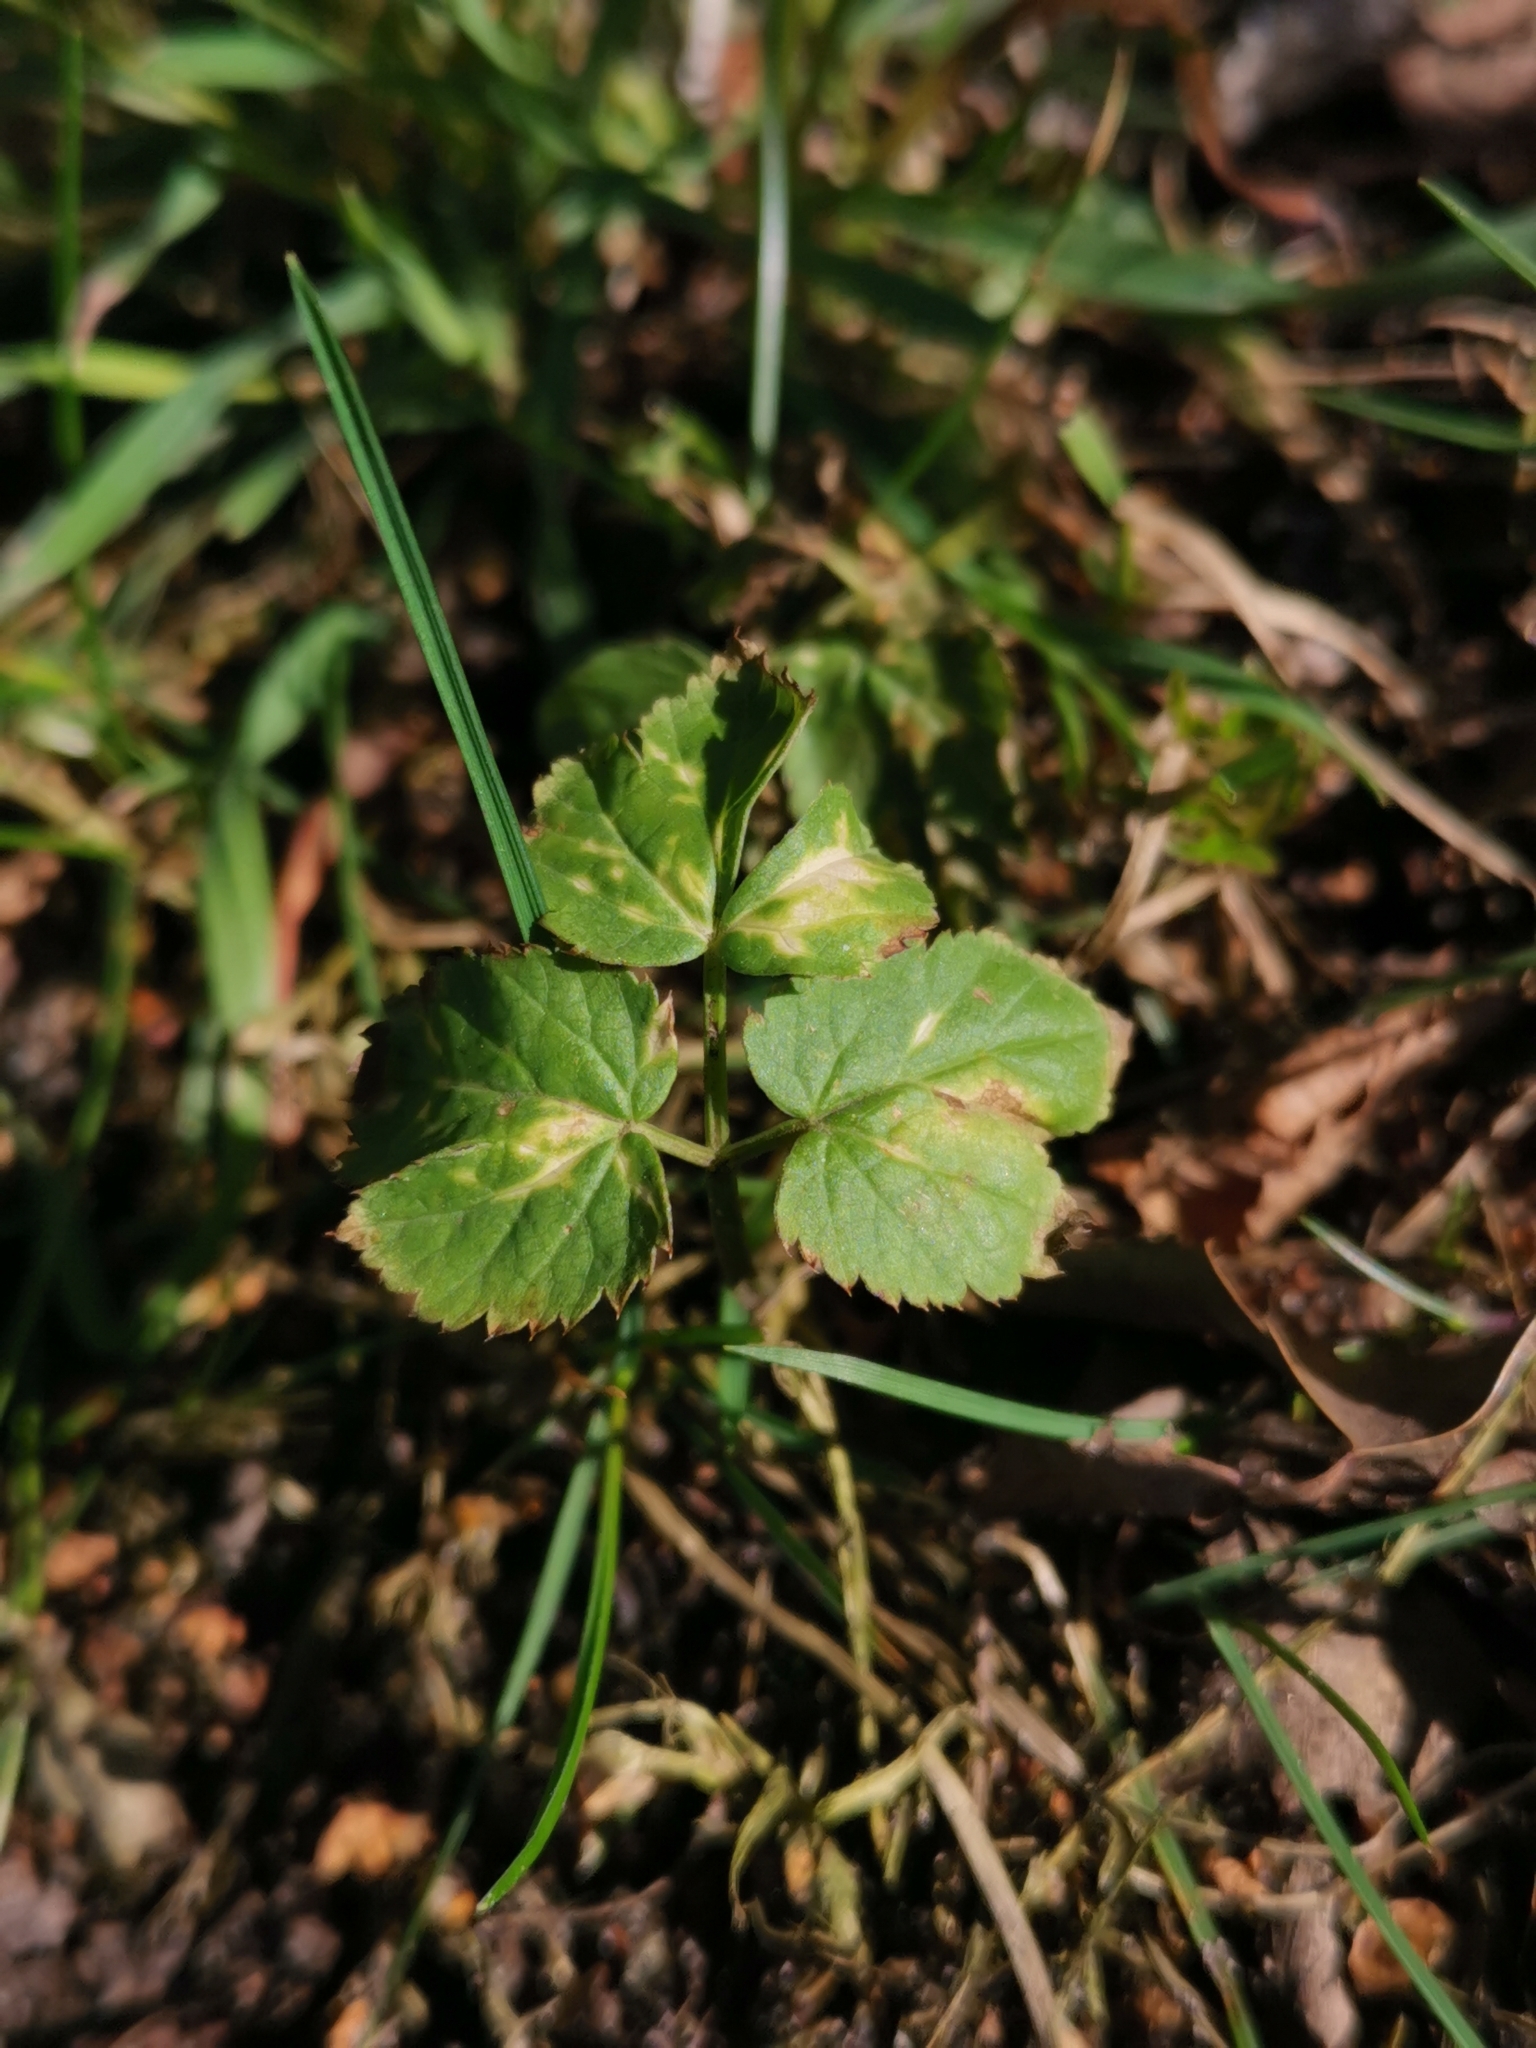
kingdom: Plantae
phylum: Tracheophyta
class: Magnoliopsida
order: Apiales
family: Apiaceae
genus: Aegopodium
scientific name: Aegopodium podagraria
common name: Ground-elder
